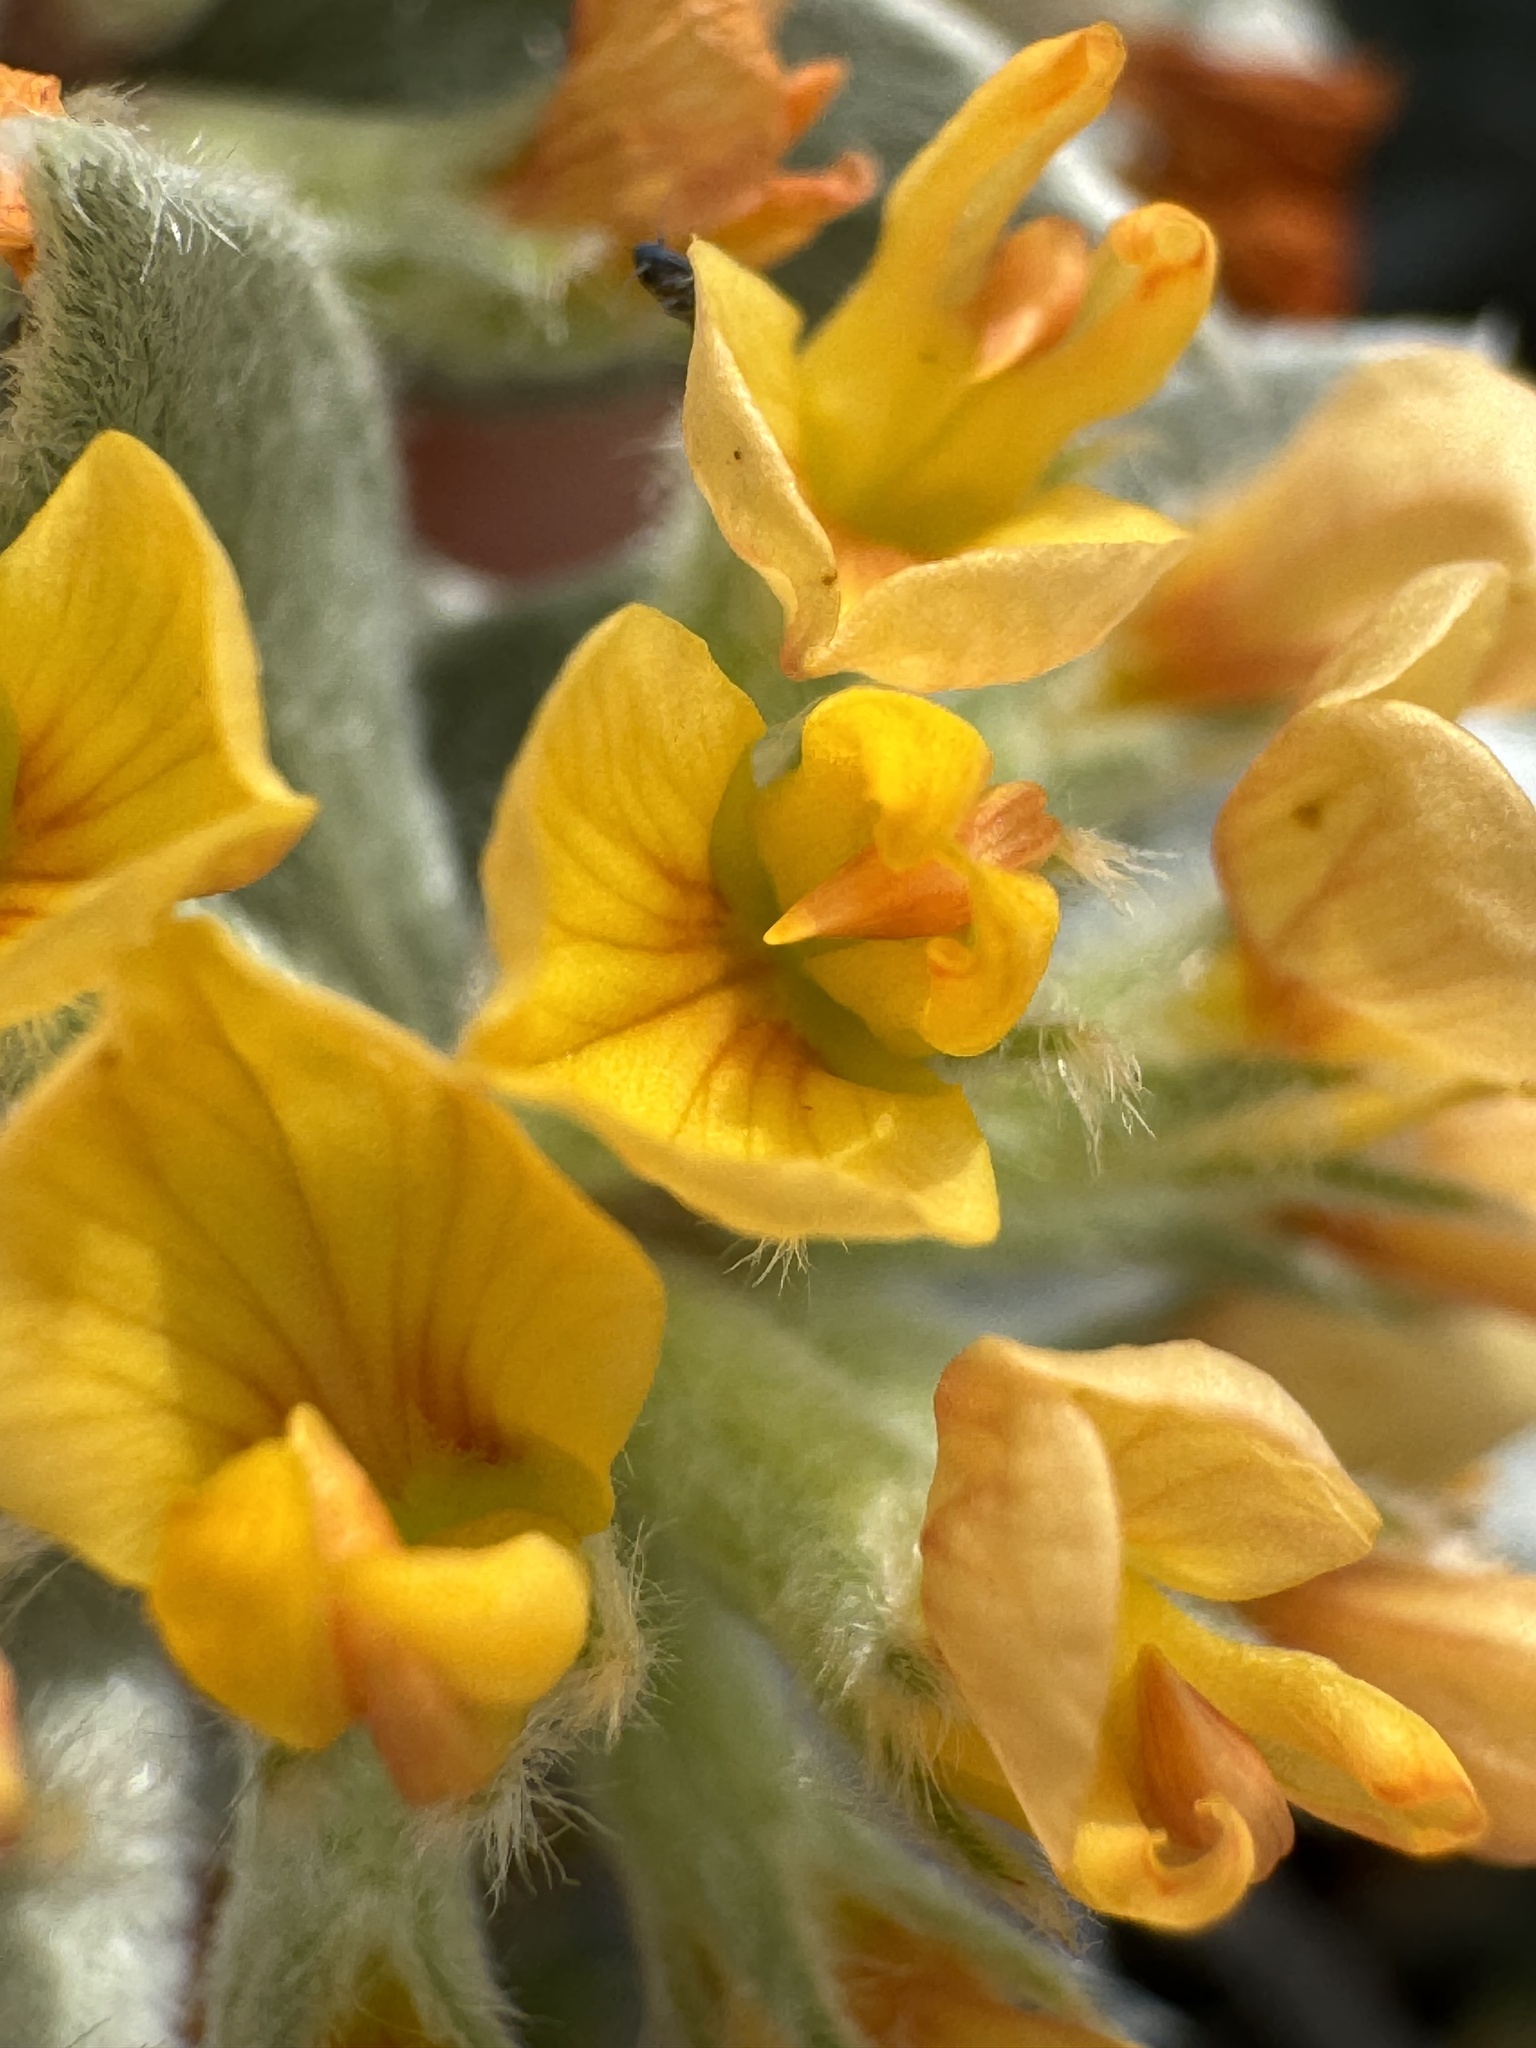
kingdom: Plantae
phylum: Tracheophyta
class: Magnoliopsida
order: Fabales
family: Fabaceae
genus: Acmispon
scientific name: Acmispon argophyllus
